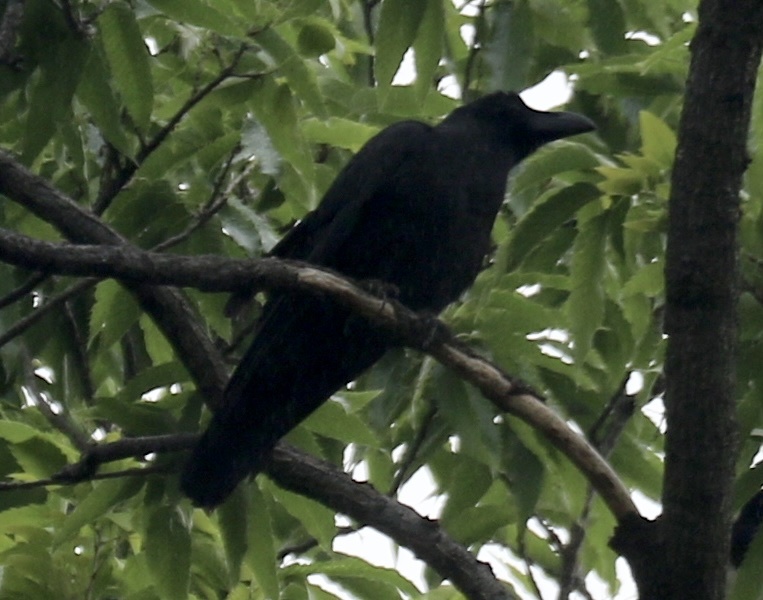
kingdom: Animalia
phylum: Chordata
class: Aves
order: Passeriformes
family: Corvidae
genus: Corvus
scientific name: Corvus macrorhynchos
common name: Large-billed crow
